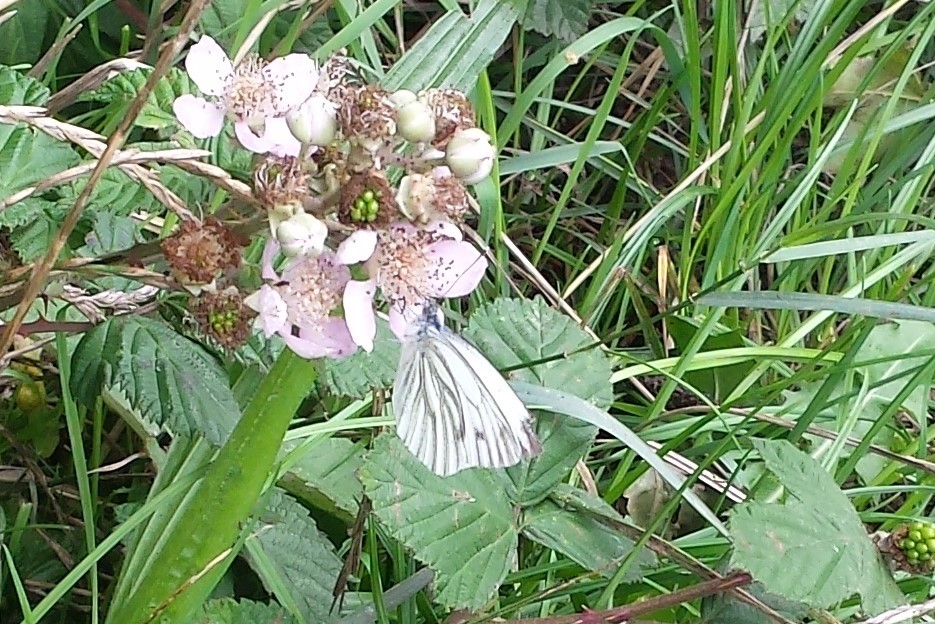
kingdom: Animalia
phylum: Arthropoda
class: Insecta
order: Lepidoptera
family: Pieridae
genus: Pieris
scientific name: Pieris napi
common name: Green-veined white
